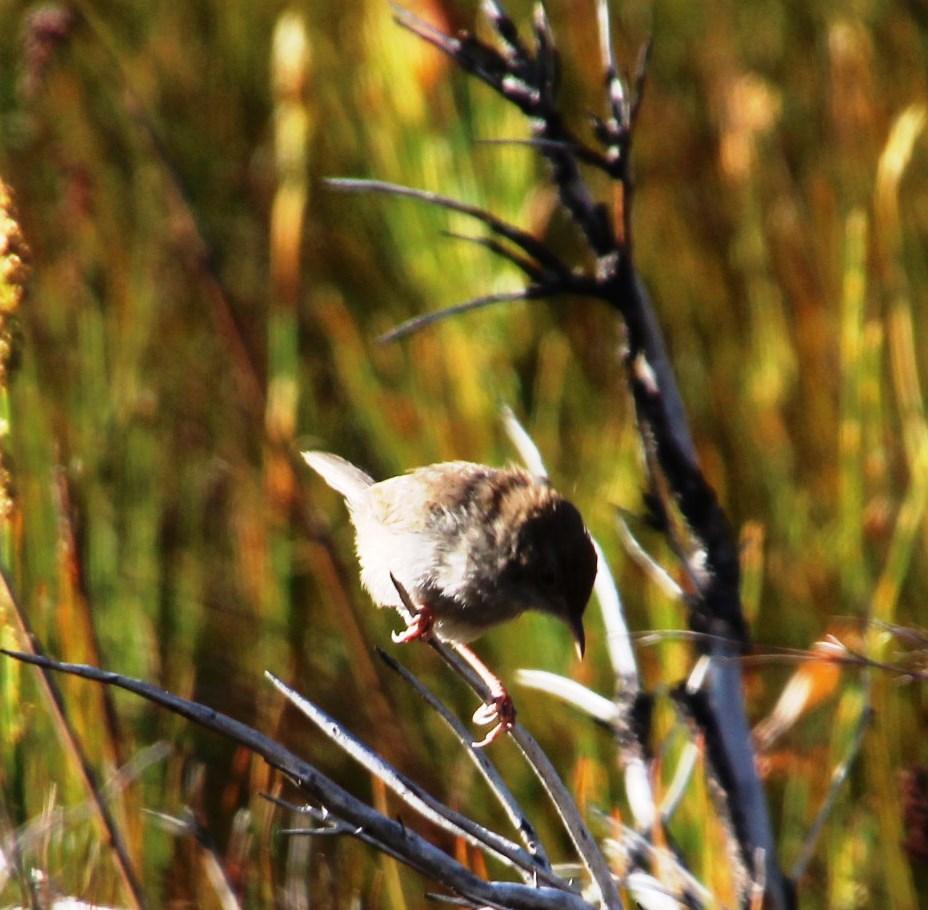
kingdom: Animalia
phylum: Chordata
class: Aves
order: Passeriformes
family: Cisticolidae
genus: Cisticola
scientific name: Cisticola fulvicapilla
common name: Neddicky
